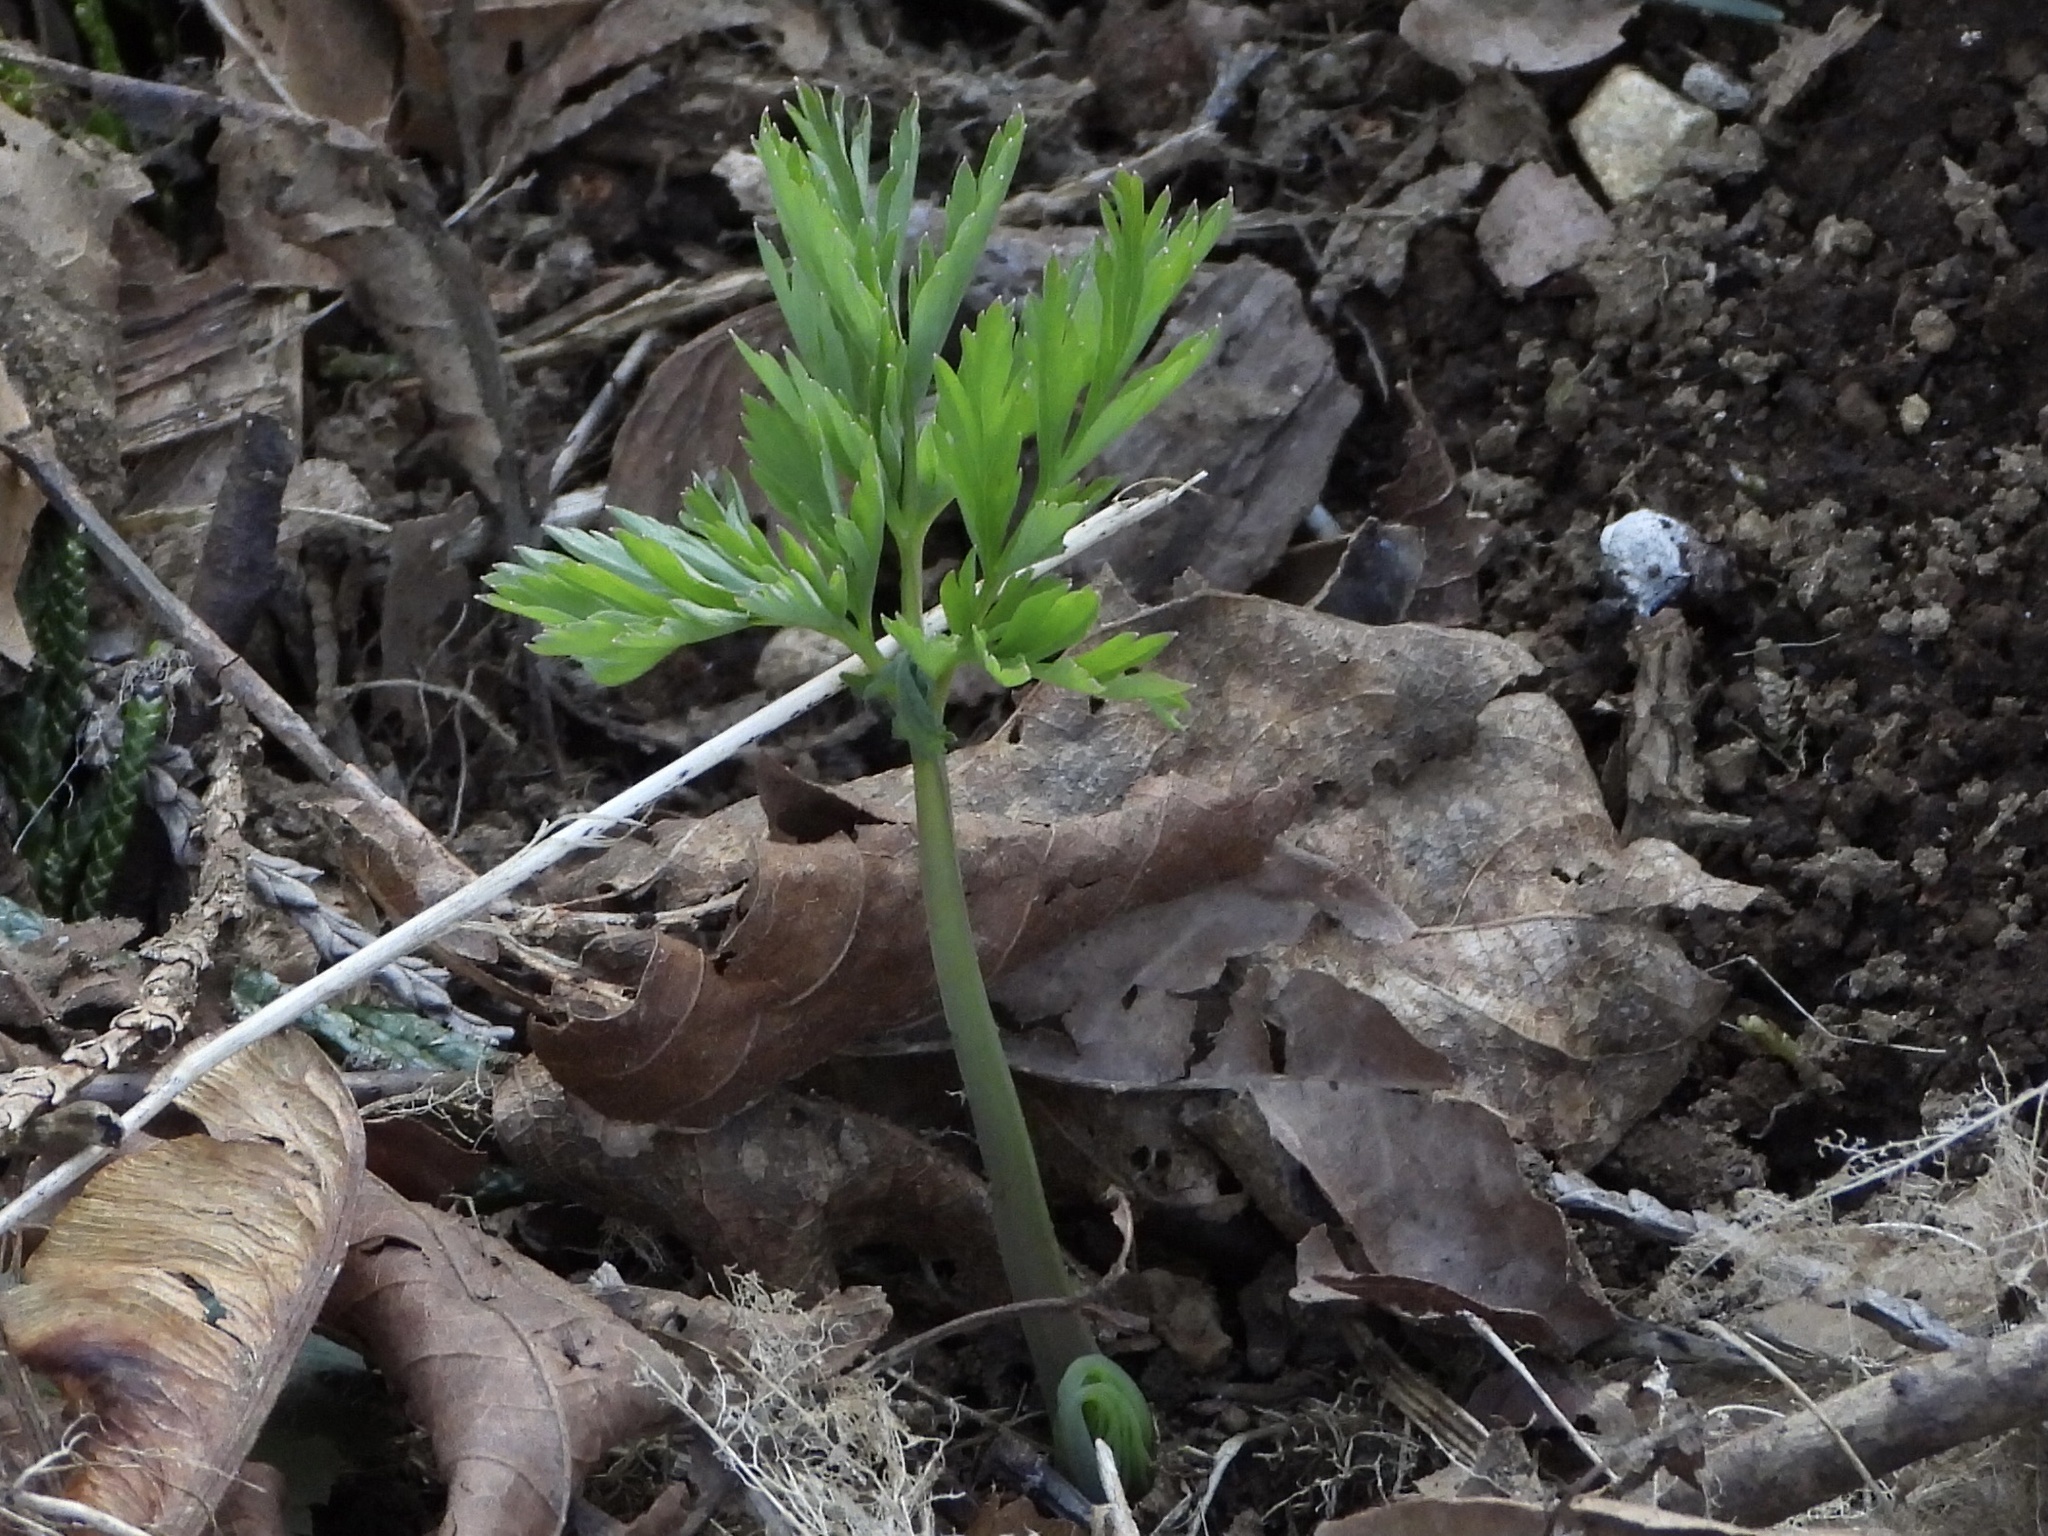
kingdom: Plantae
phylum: Tracheophyta
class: Magnoliopsida
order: Ranunculales
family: Papaveraceae
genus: Dicentra
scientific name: Dicentra formosa
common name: Bleeding-heart
